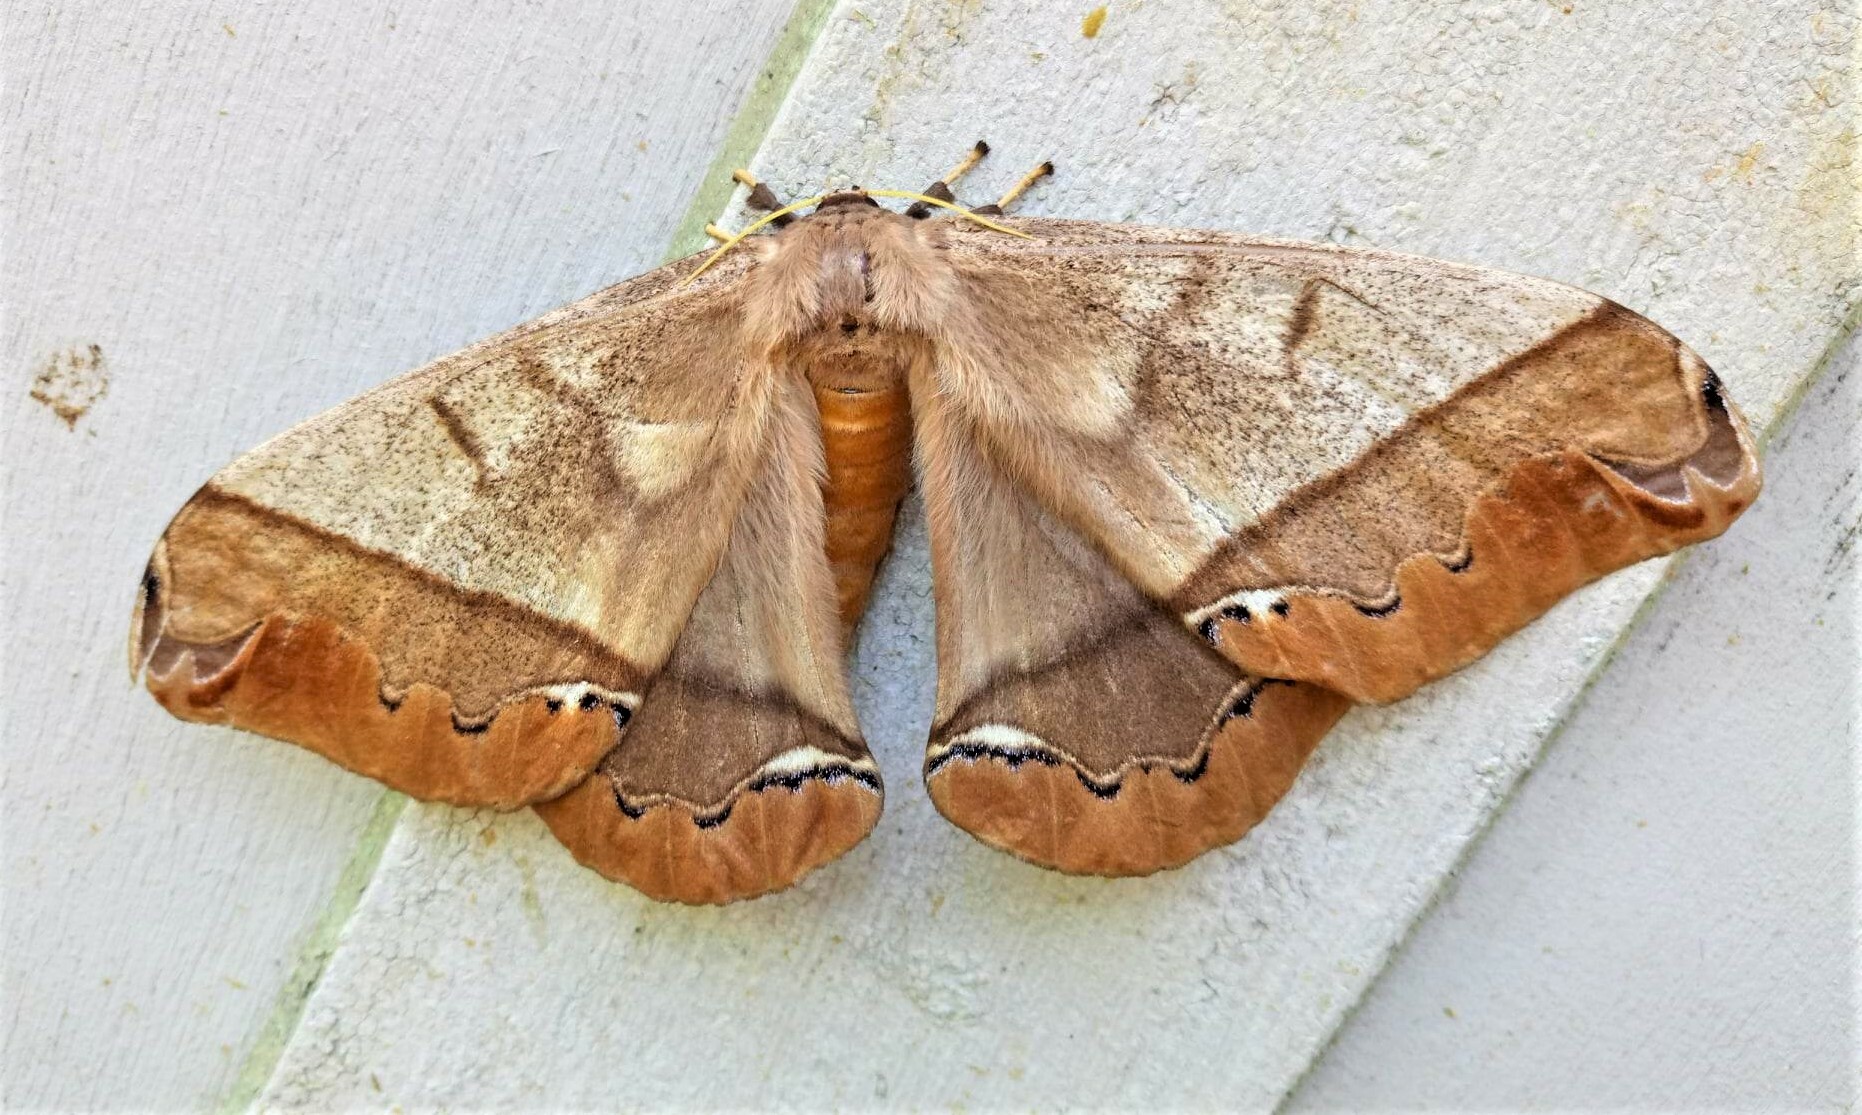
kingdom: Animalia
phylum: Arthropoda
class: Insecta
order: Lepidoptera
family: Saturniidae
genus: Arsenura
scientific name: Arsenura armida
